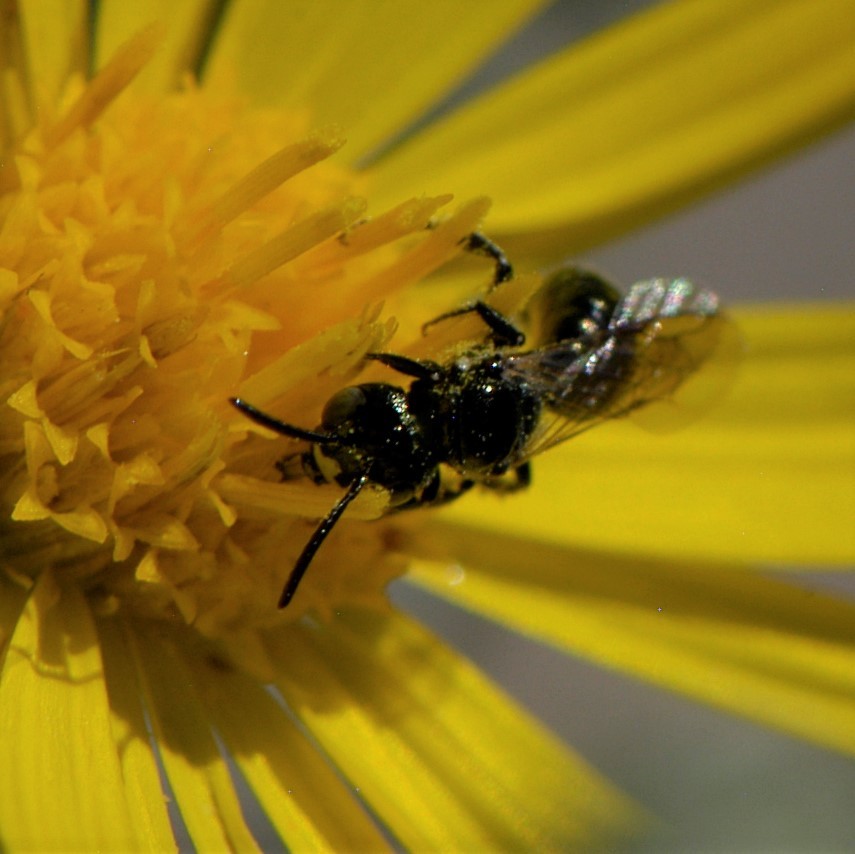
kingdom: Animalia
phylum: Arthropoda
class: Insecta
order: Hymenoptera
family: Apidae
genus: Zadontomerus
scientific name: Zadontomerus
